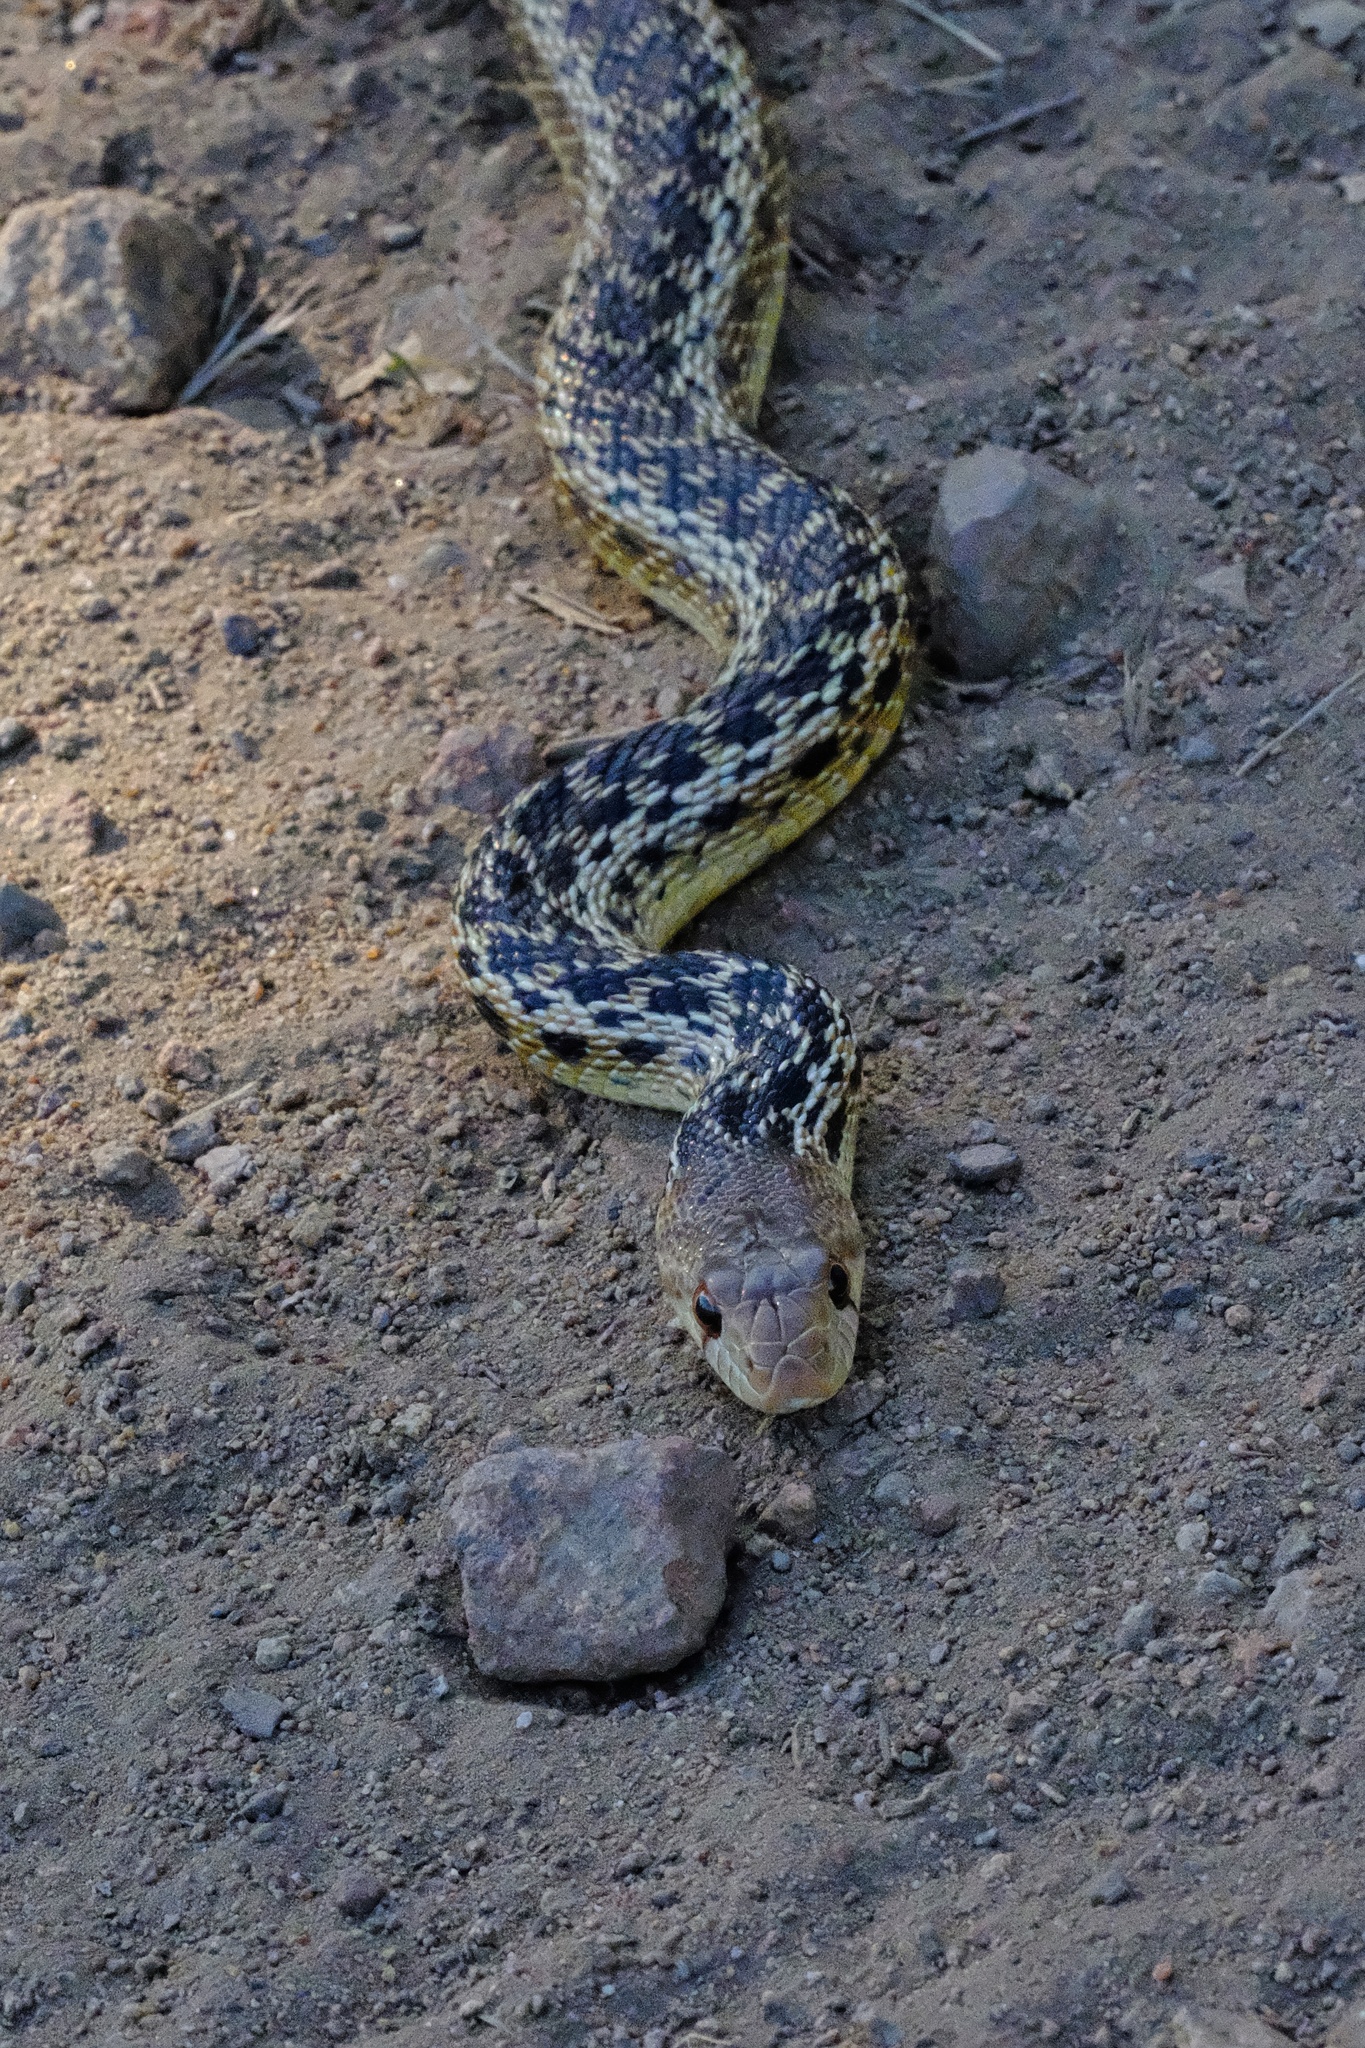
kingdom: Animalia
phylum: Chordata
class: Squamata
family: Colubridae
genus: Pituophis
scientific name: Pituophis catenifer
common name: Gopher snake
